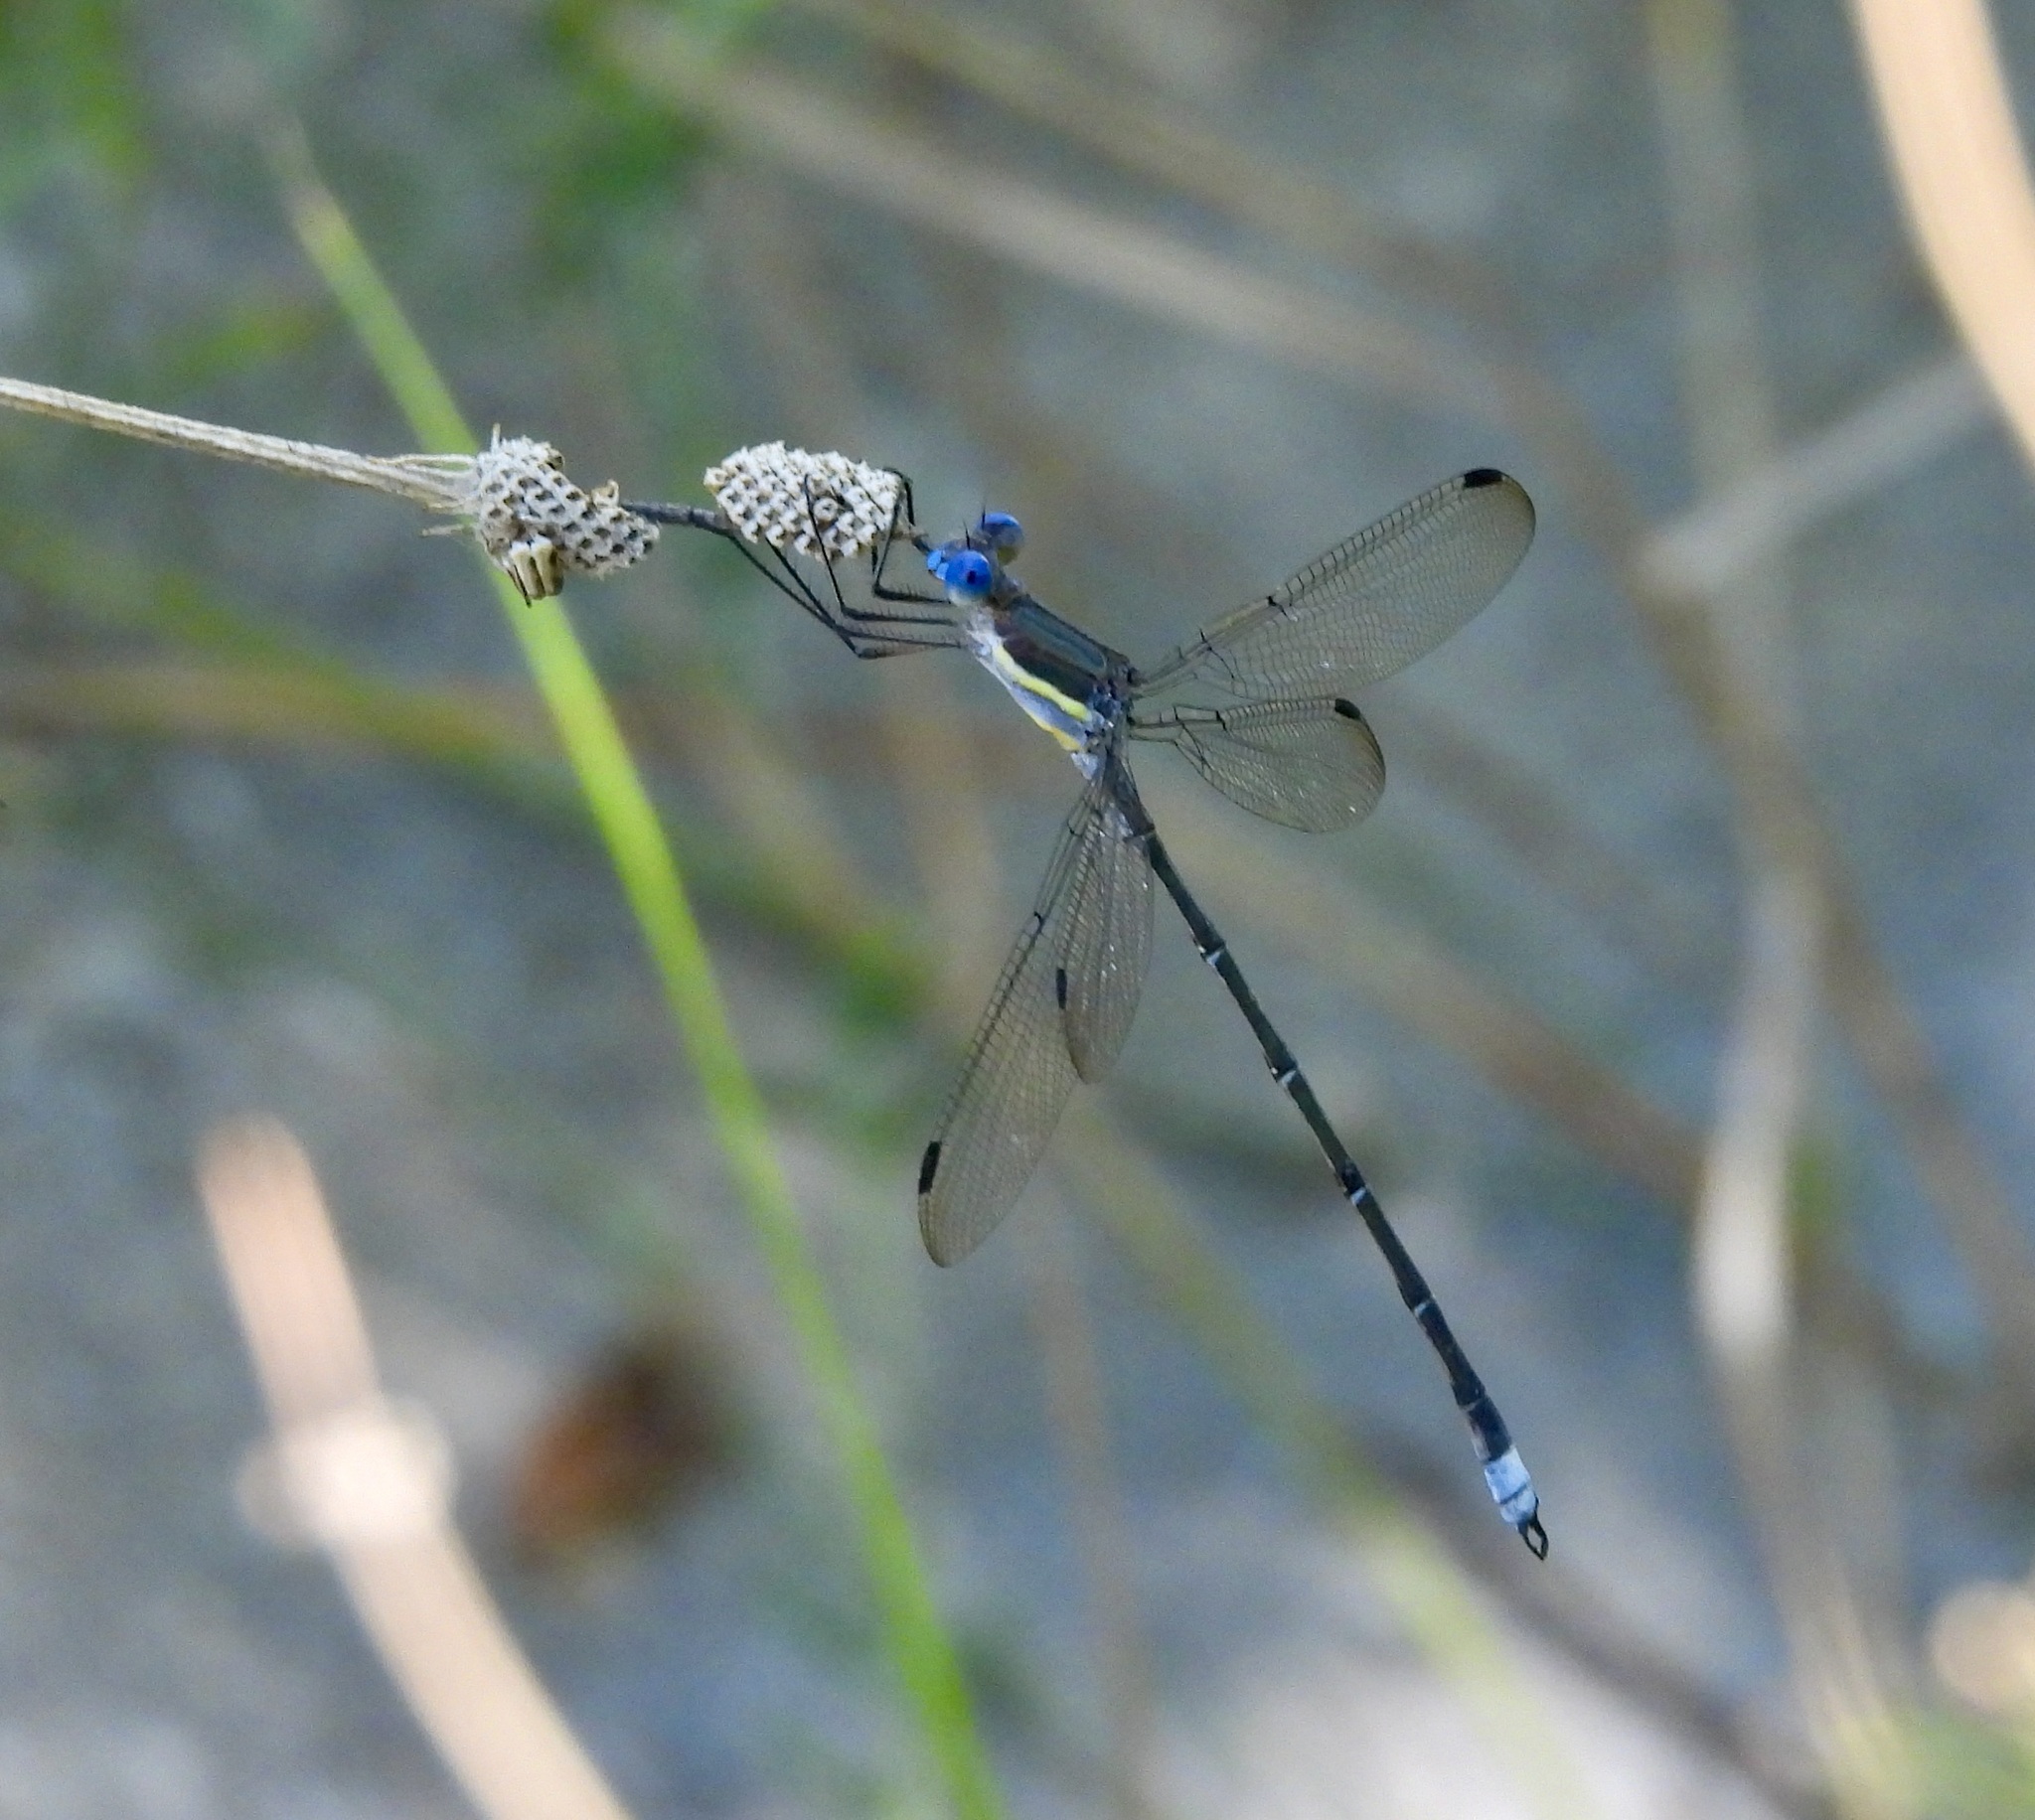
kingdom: Animalia
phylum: Arthropoda
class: Insecta
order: Odonata
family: Lestidae
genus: Archilestes
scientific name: Archilestes grandis
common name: Great spreadwing
